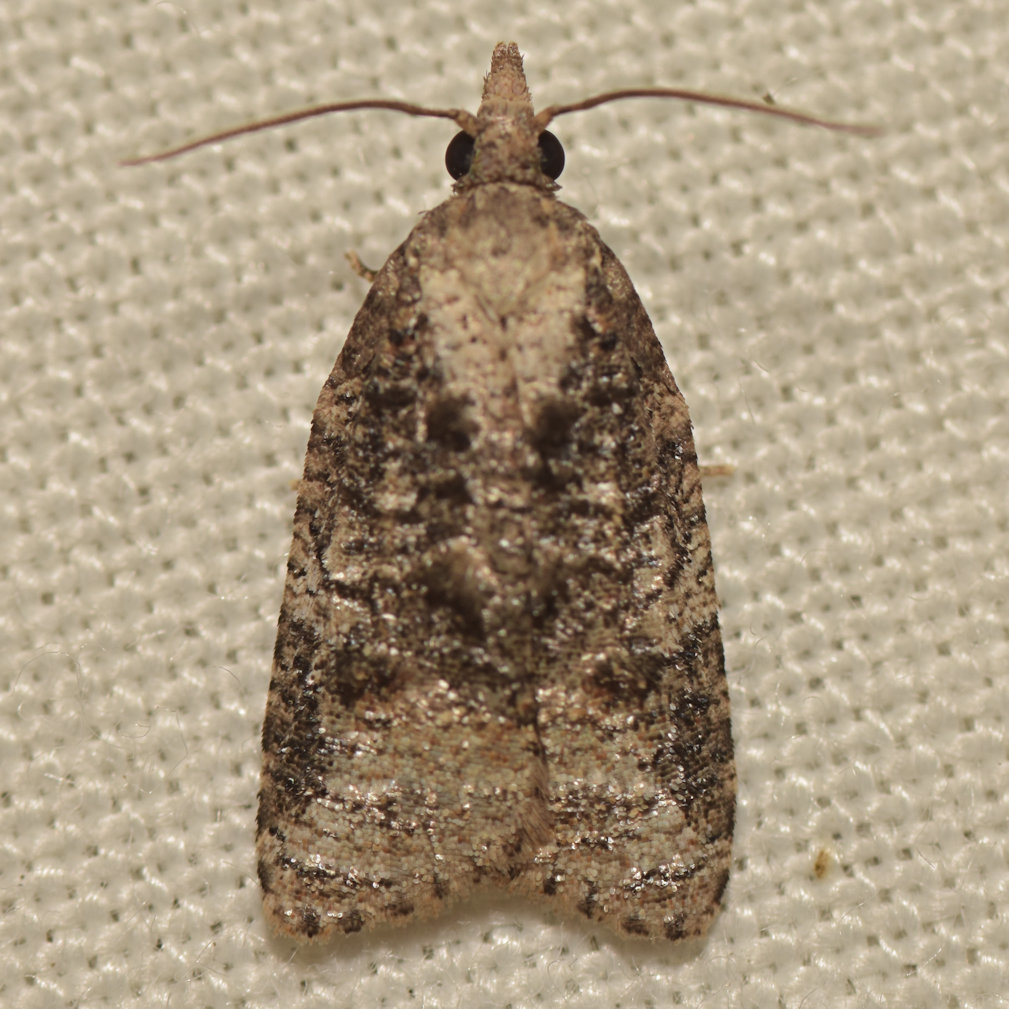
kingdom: Animalia
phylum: Arthropoda
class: Insecta
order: Lepidoptera
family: Tortricidae
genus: Platynota
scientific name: Platynota exasperatana
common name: Exasperating platynota moth
